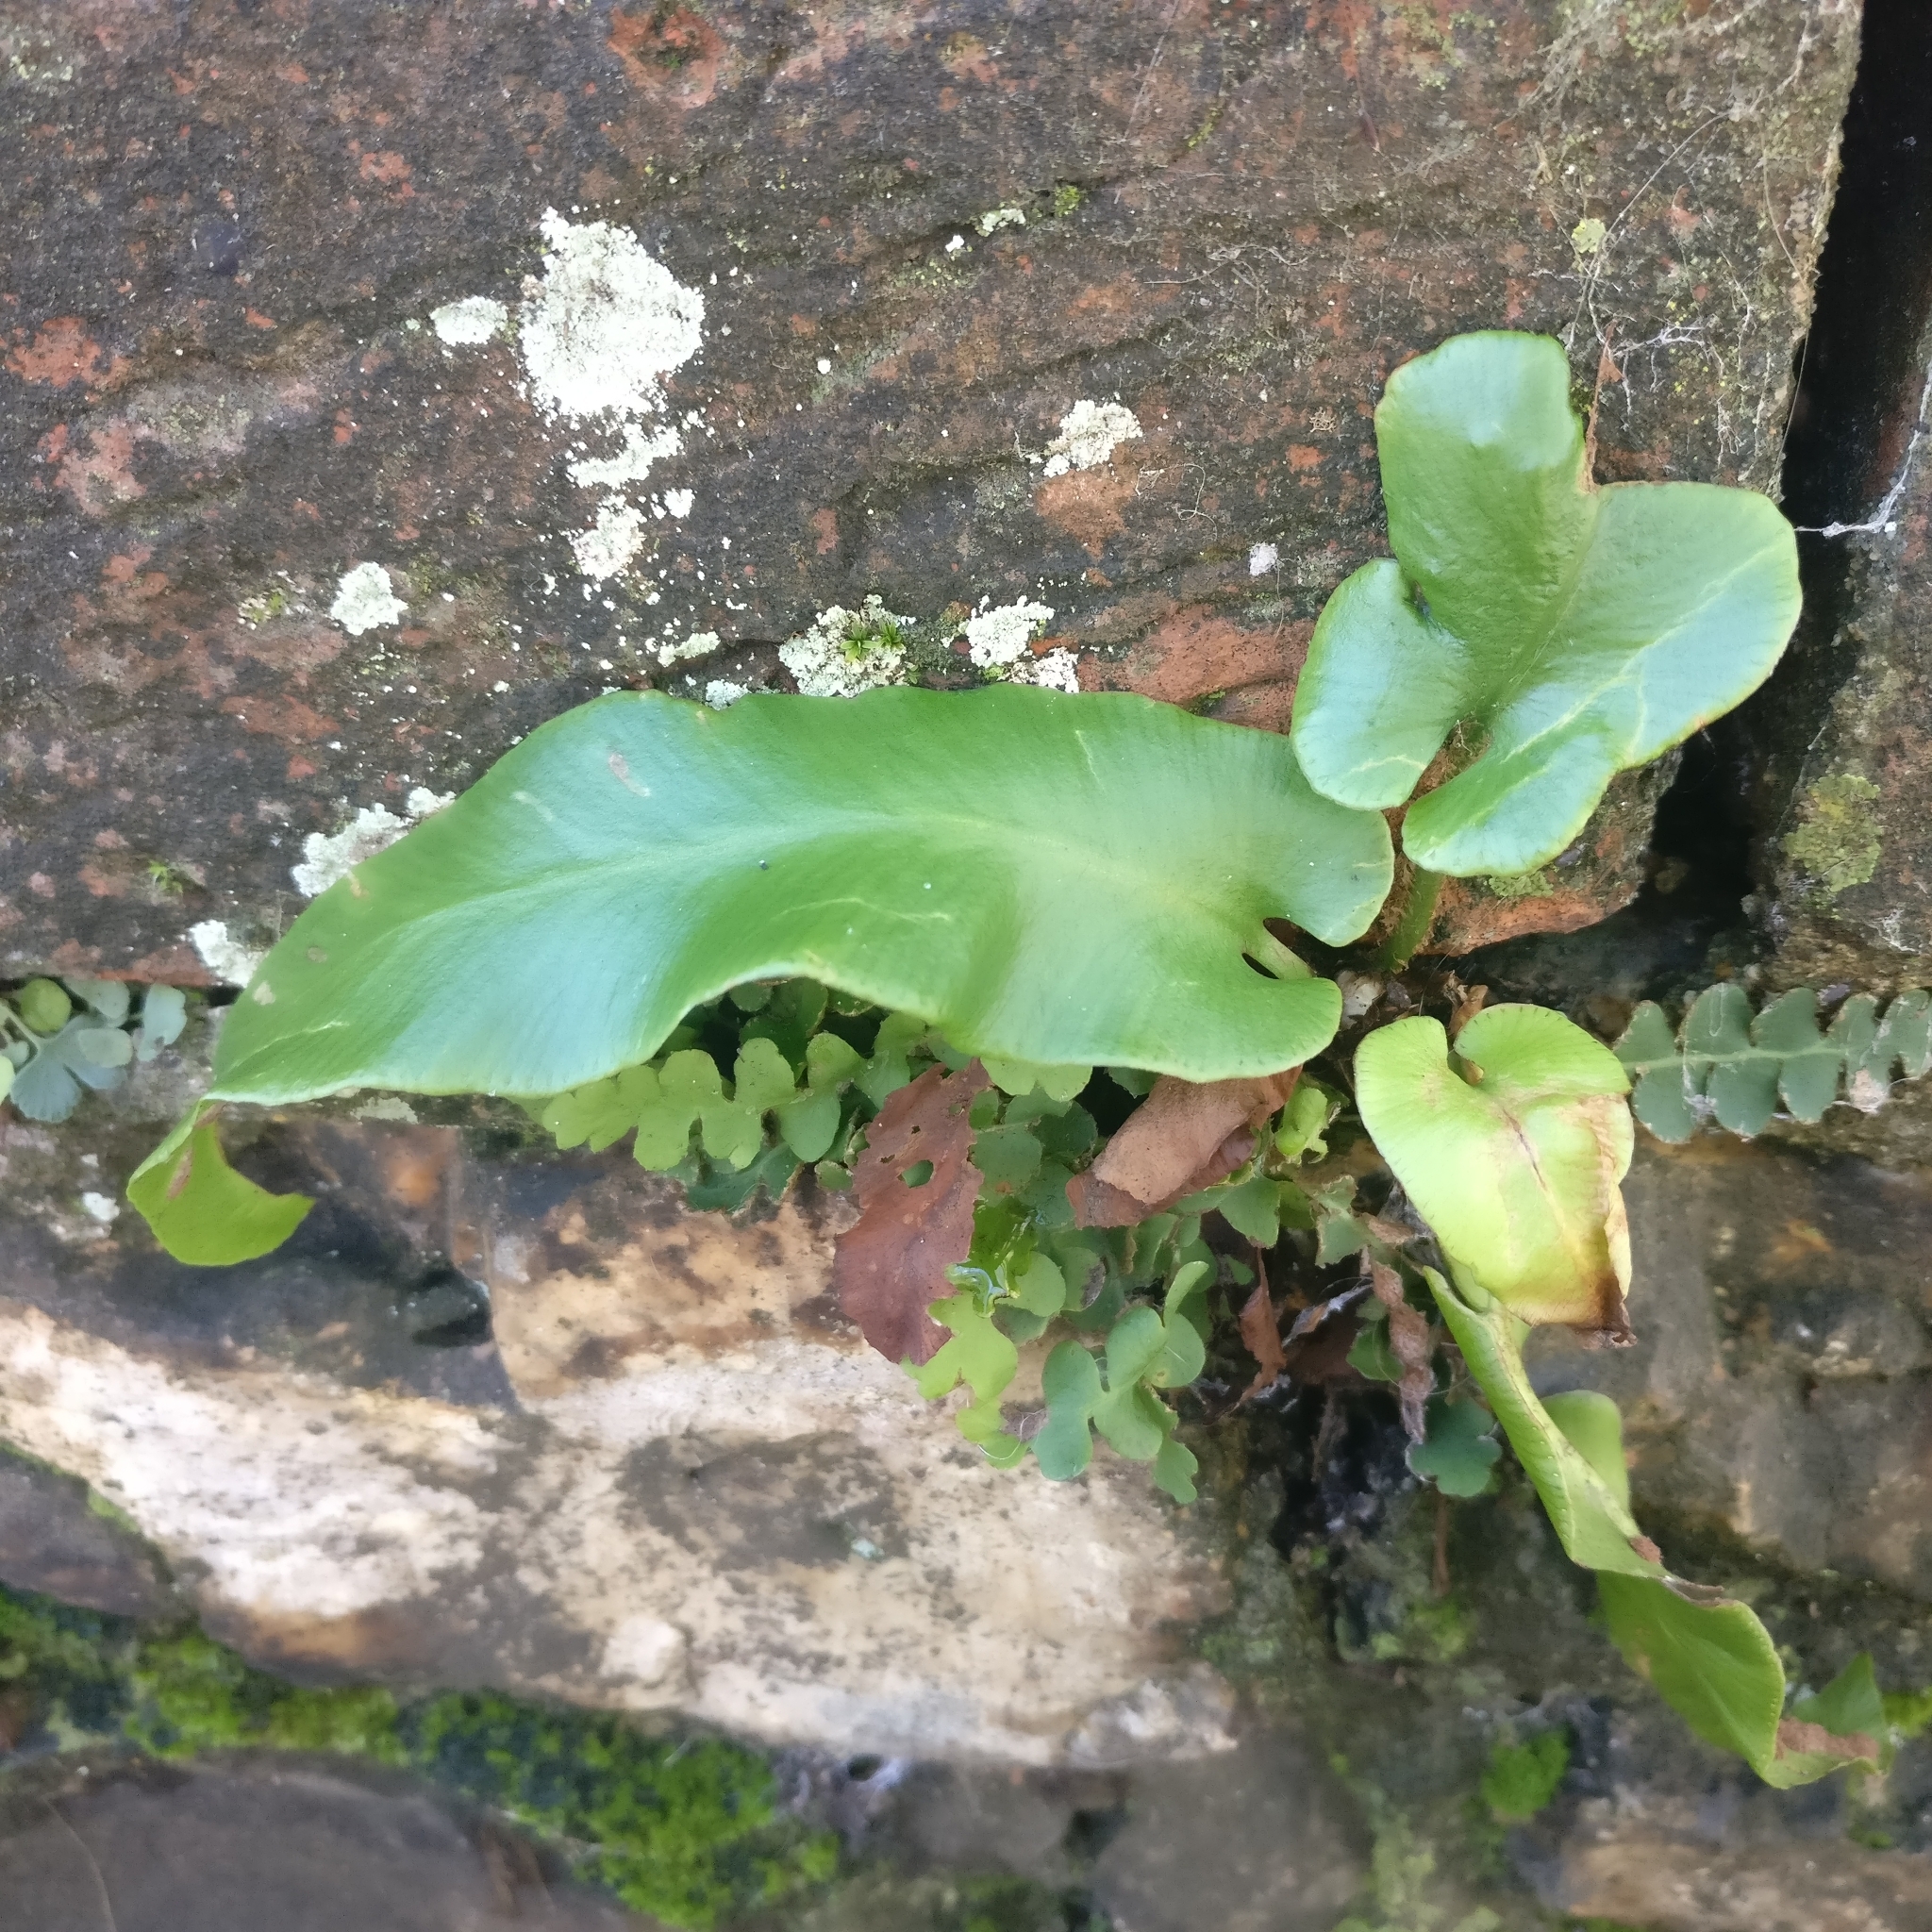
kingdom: Plantae
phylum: Tracheophyta
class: Polypodiopsida
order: Polypodiales
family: Aspleniaceae
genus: Asplenium
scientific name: Asplenium scolopendrium
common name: Hart's-tongue fern
